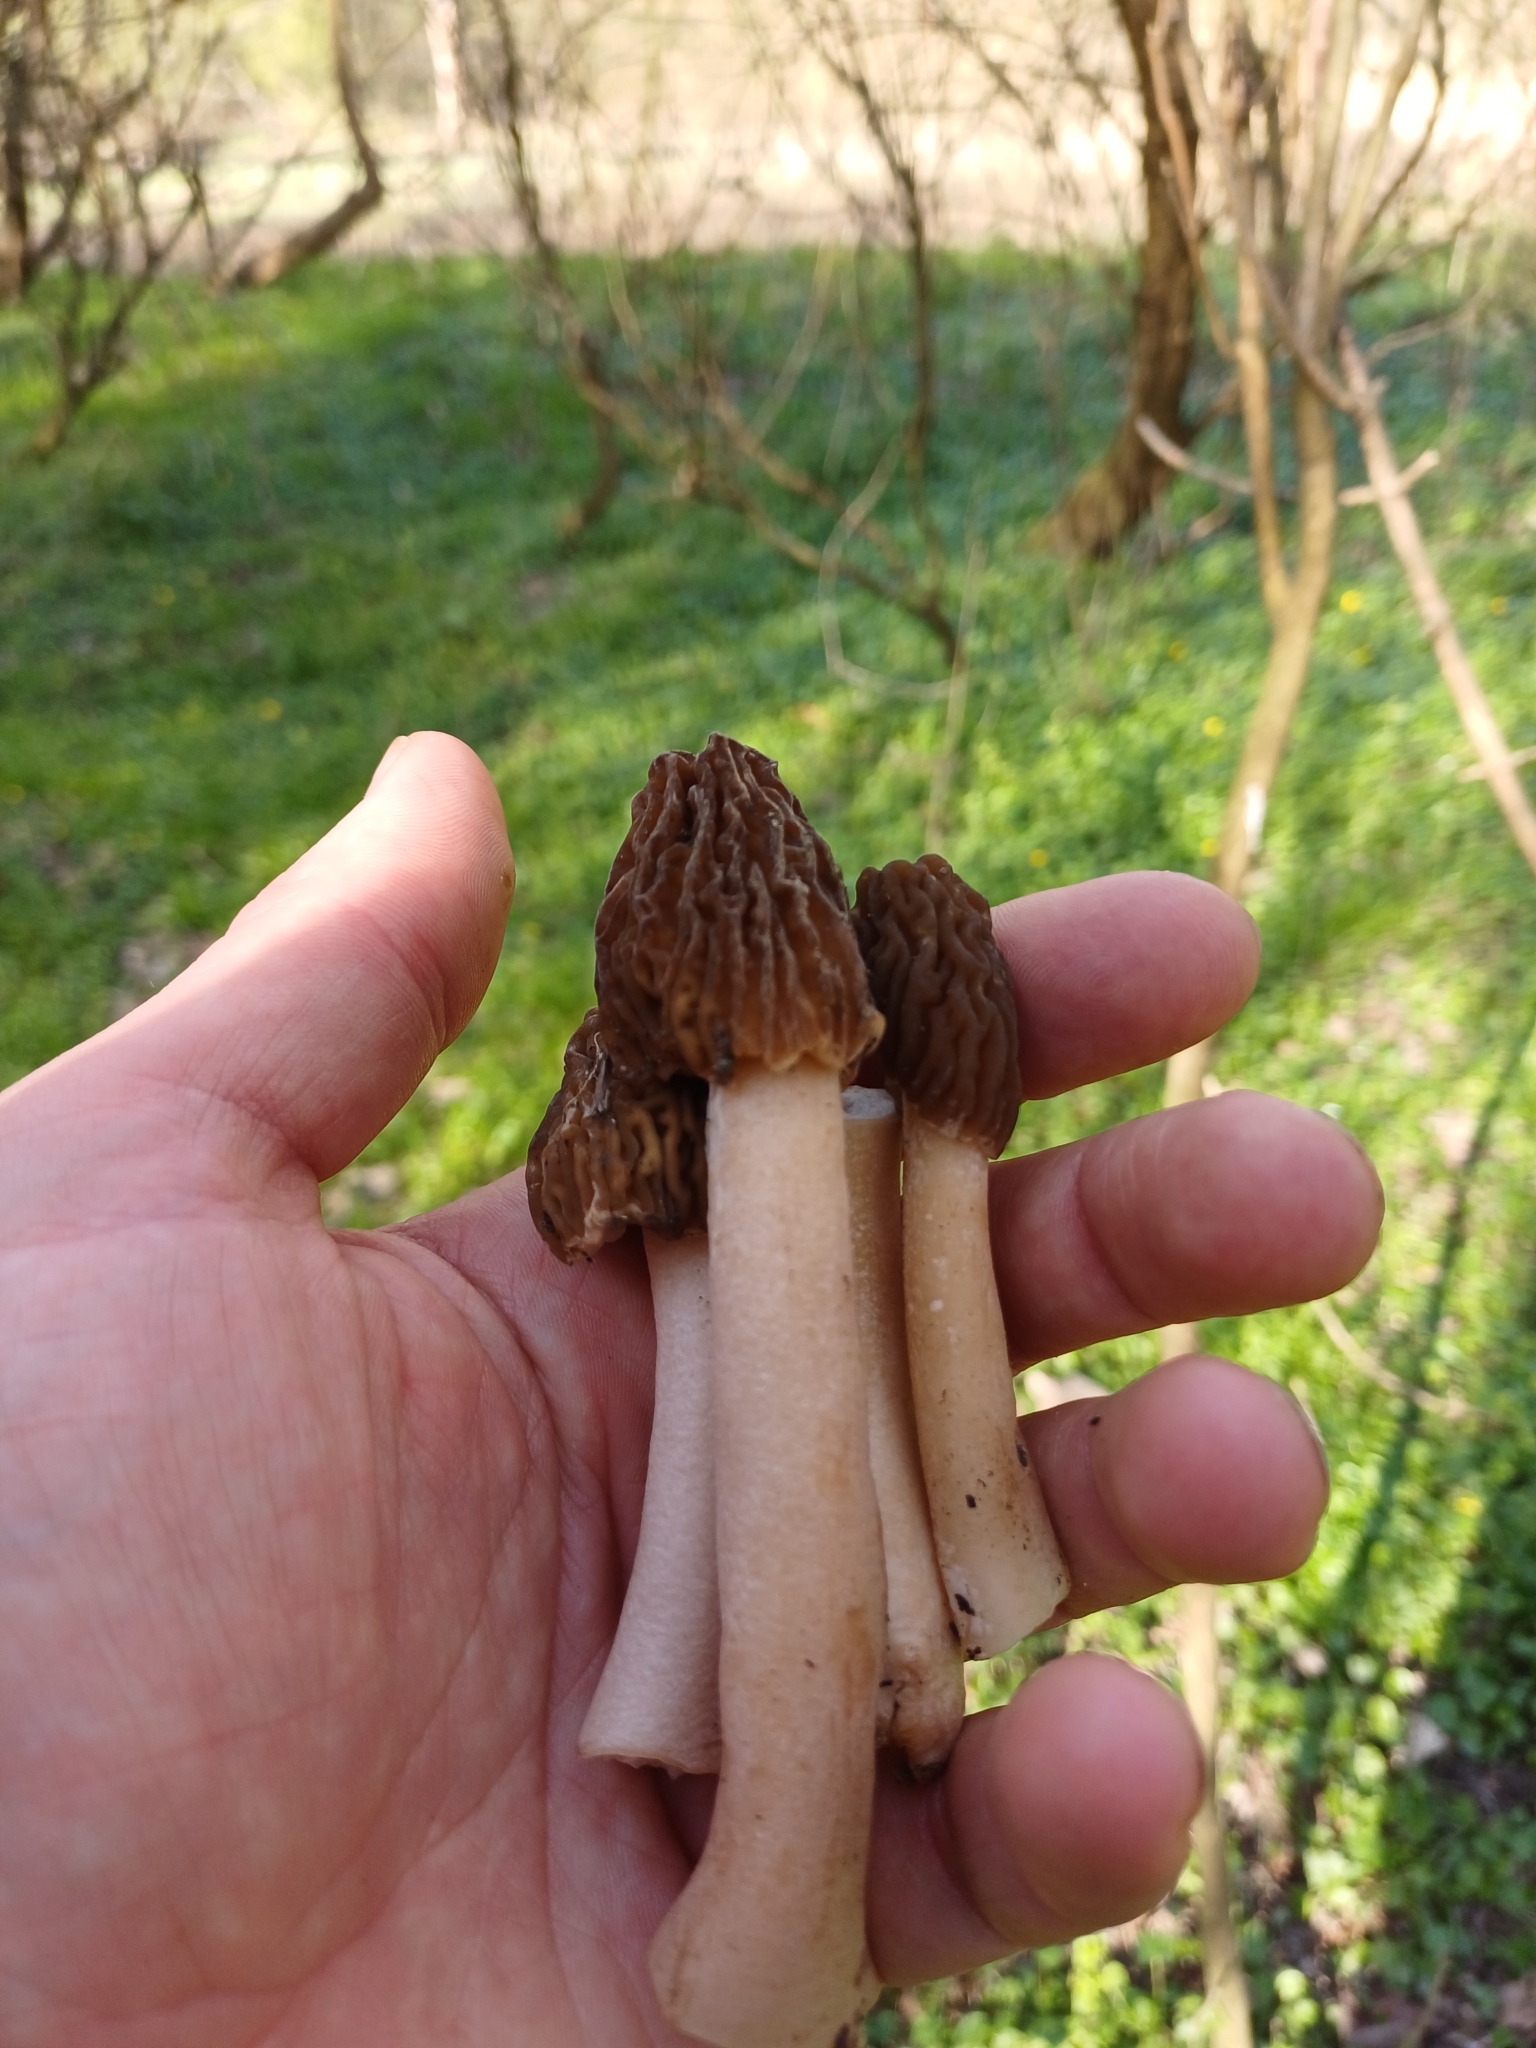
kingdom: Fungi
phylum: Ascomycota
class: Pezizomycetes
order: Pezizales
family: Morchellaceae
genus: Verpa
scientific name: Verpa bohemica
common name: Wrinkled thimble morel
